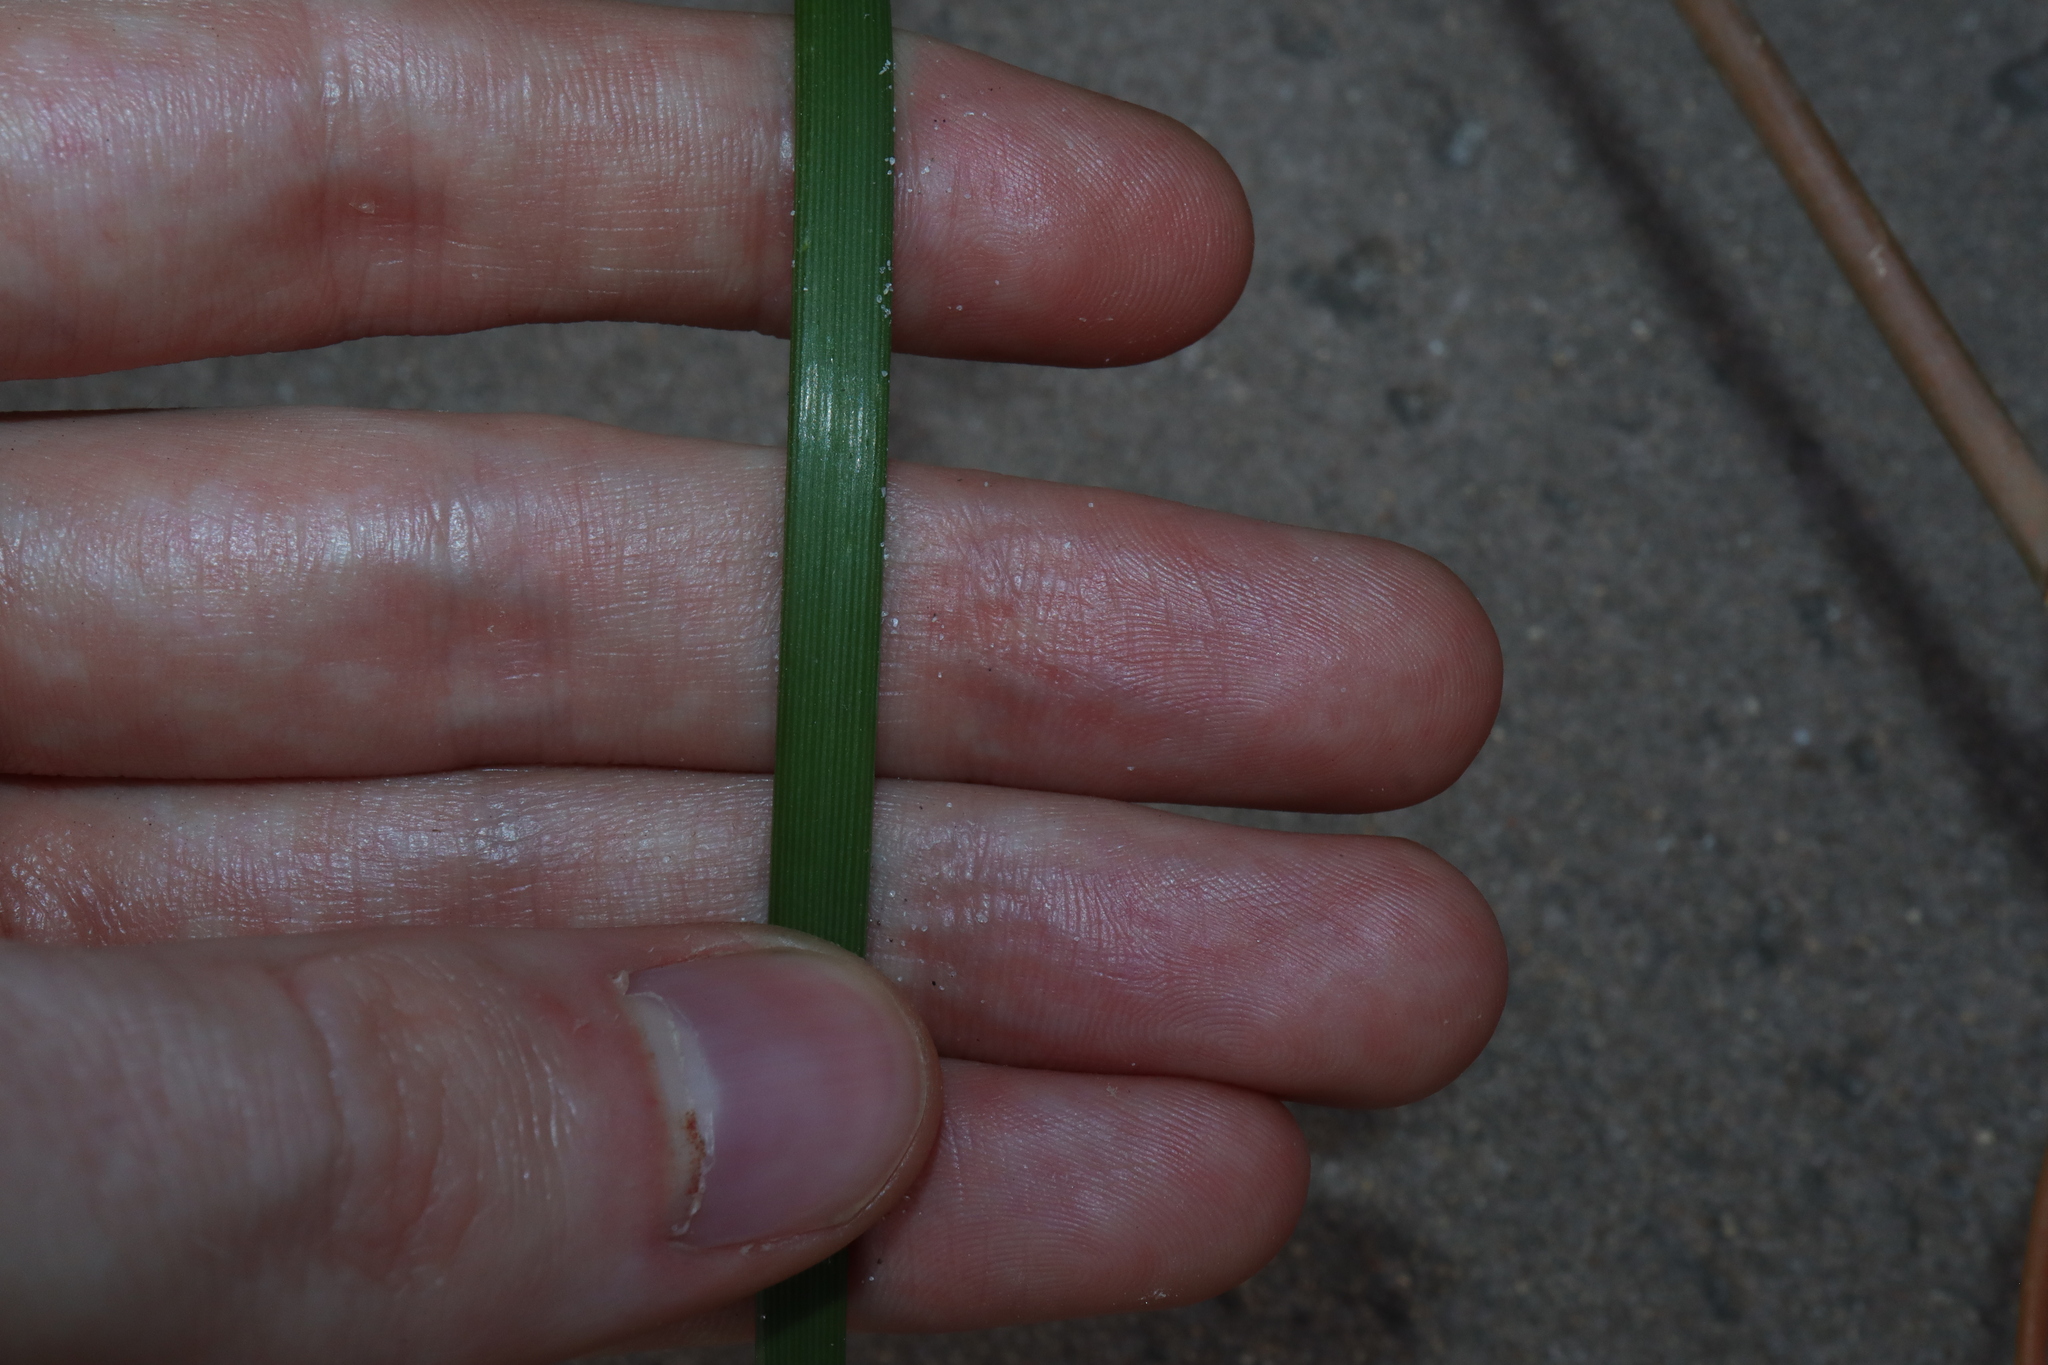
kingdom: Plantae
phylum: Tracheophyta
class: Liliopsida
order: Asparagales
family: Asphodelaceae
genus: Trachyandra
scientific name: Trachyandra divaricata
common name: Dune onionweed
